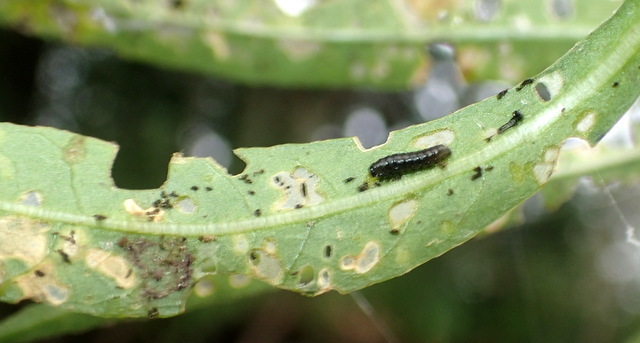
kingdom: Animalia
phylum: Arthropoda
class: Insecta
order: Coleoptera
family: Chrysomelidae
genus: Agasicles
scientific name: Agasicles hygrophila
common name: Alligatorweed flea beetle
